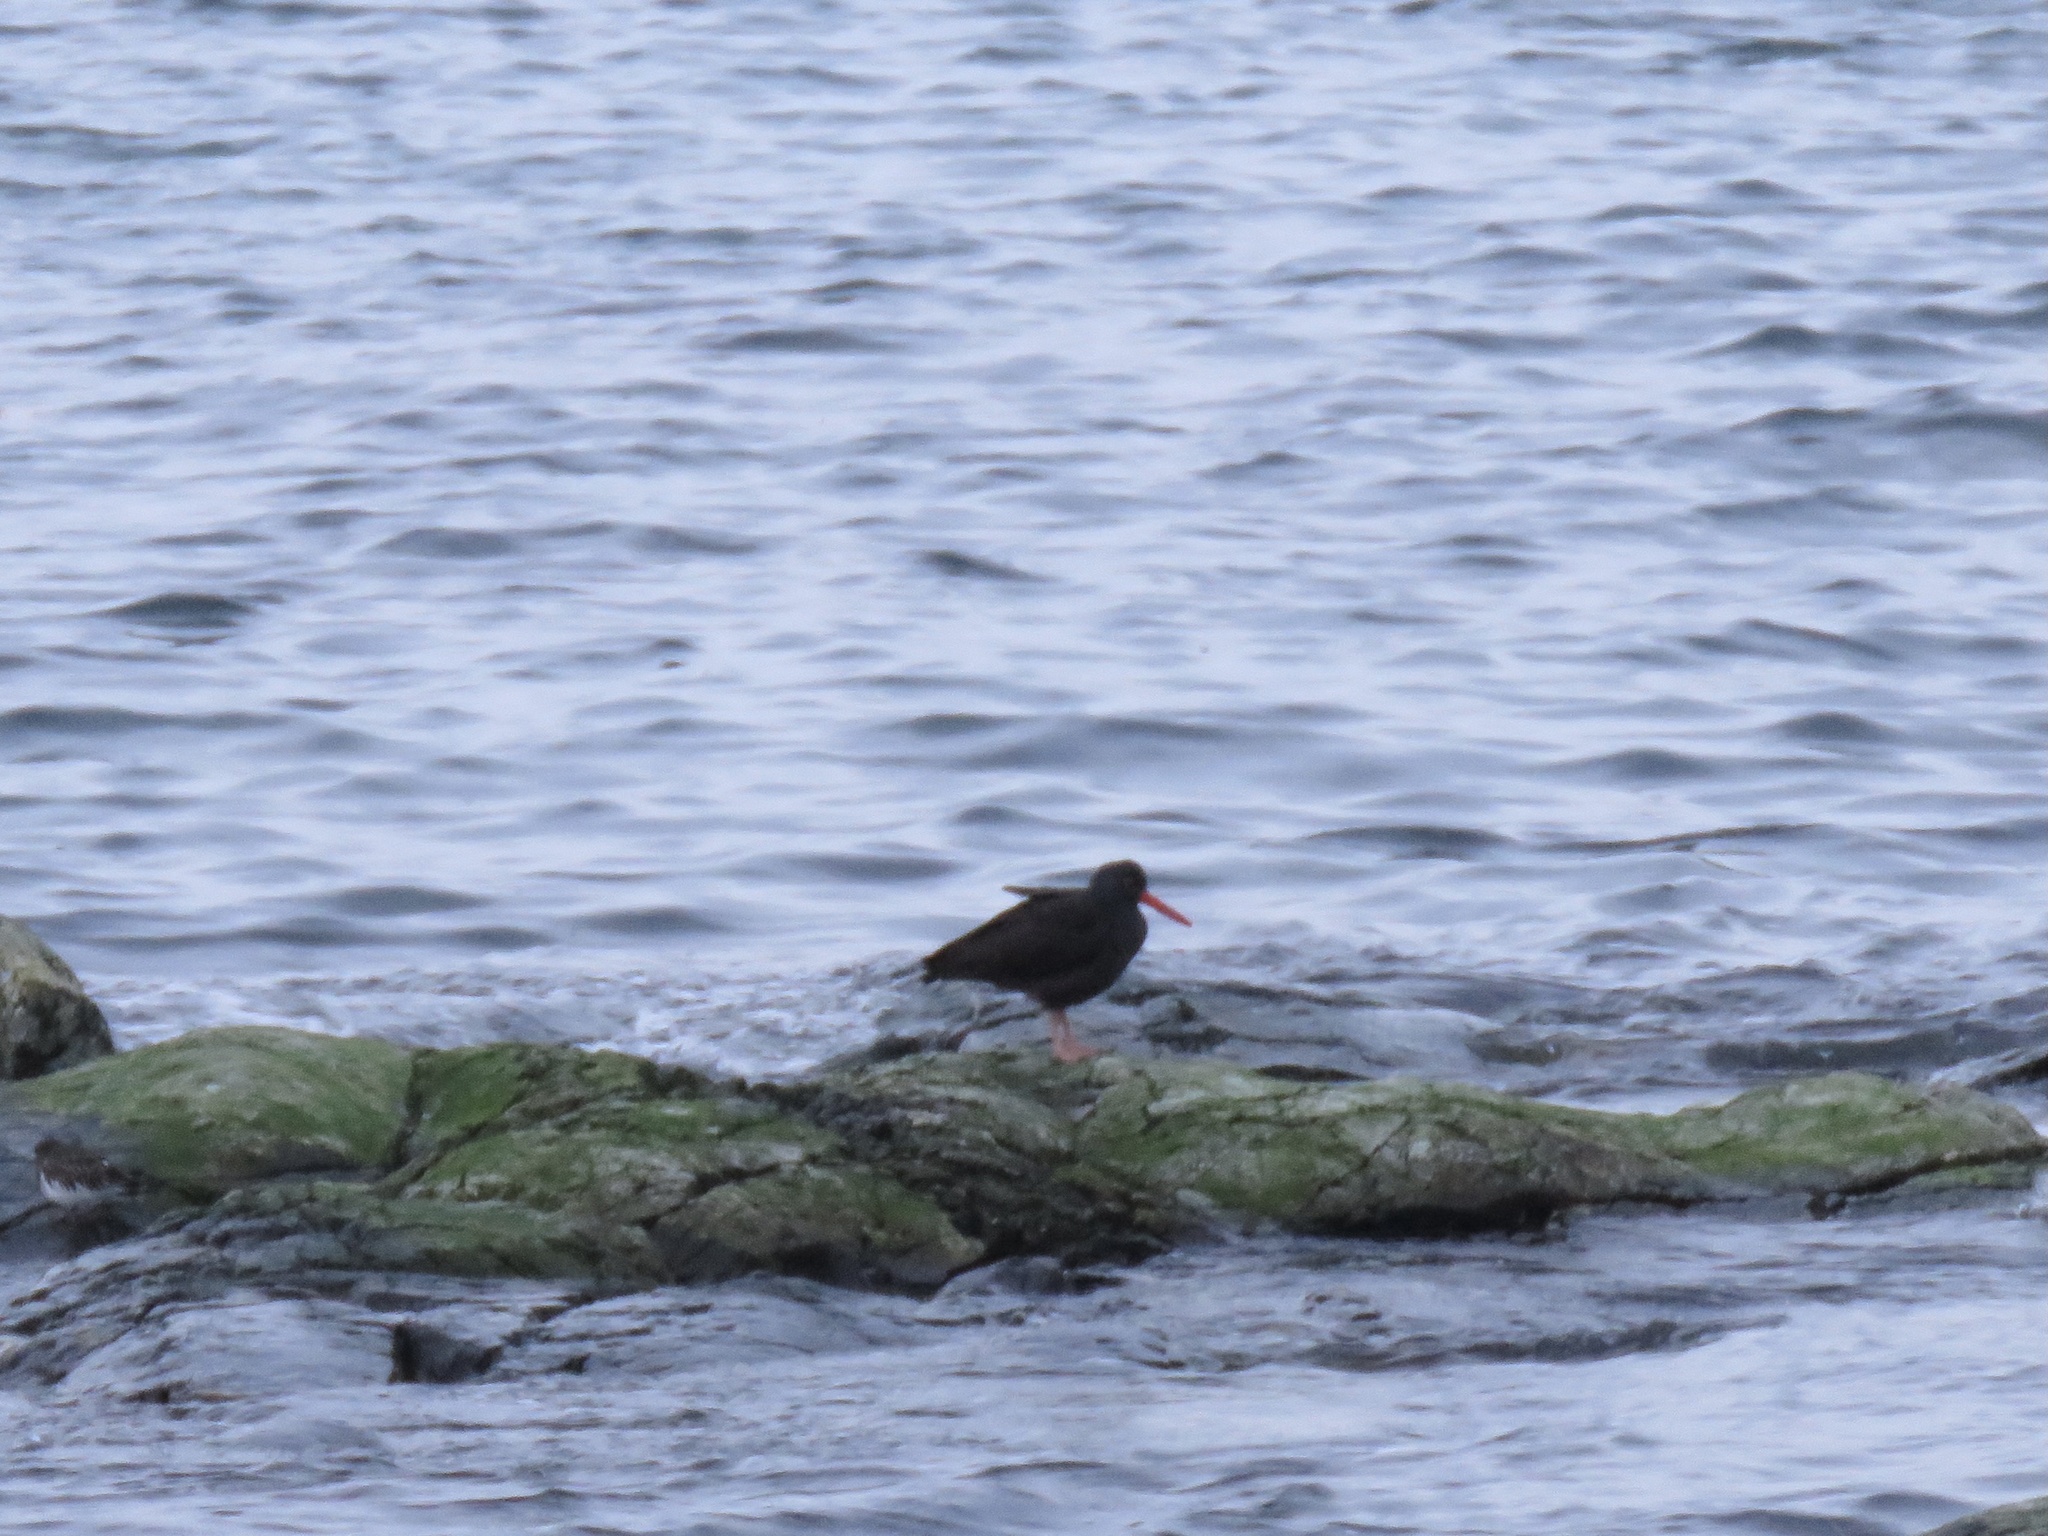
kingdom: Animalia
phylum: Chordata
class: Aves
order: Charadriiformes
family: Haematopodidae
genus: Haematopus
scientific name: Haematopus bachmani
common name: Black oystercatcher
